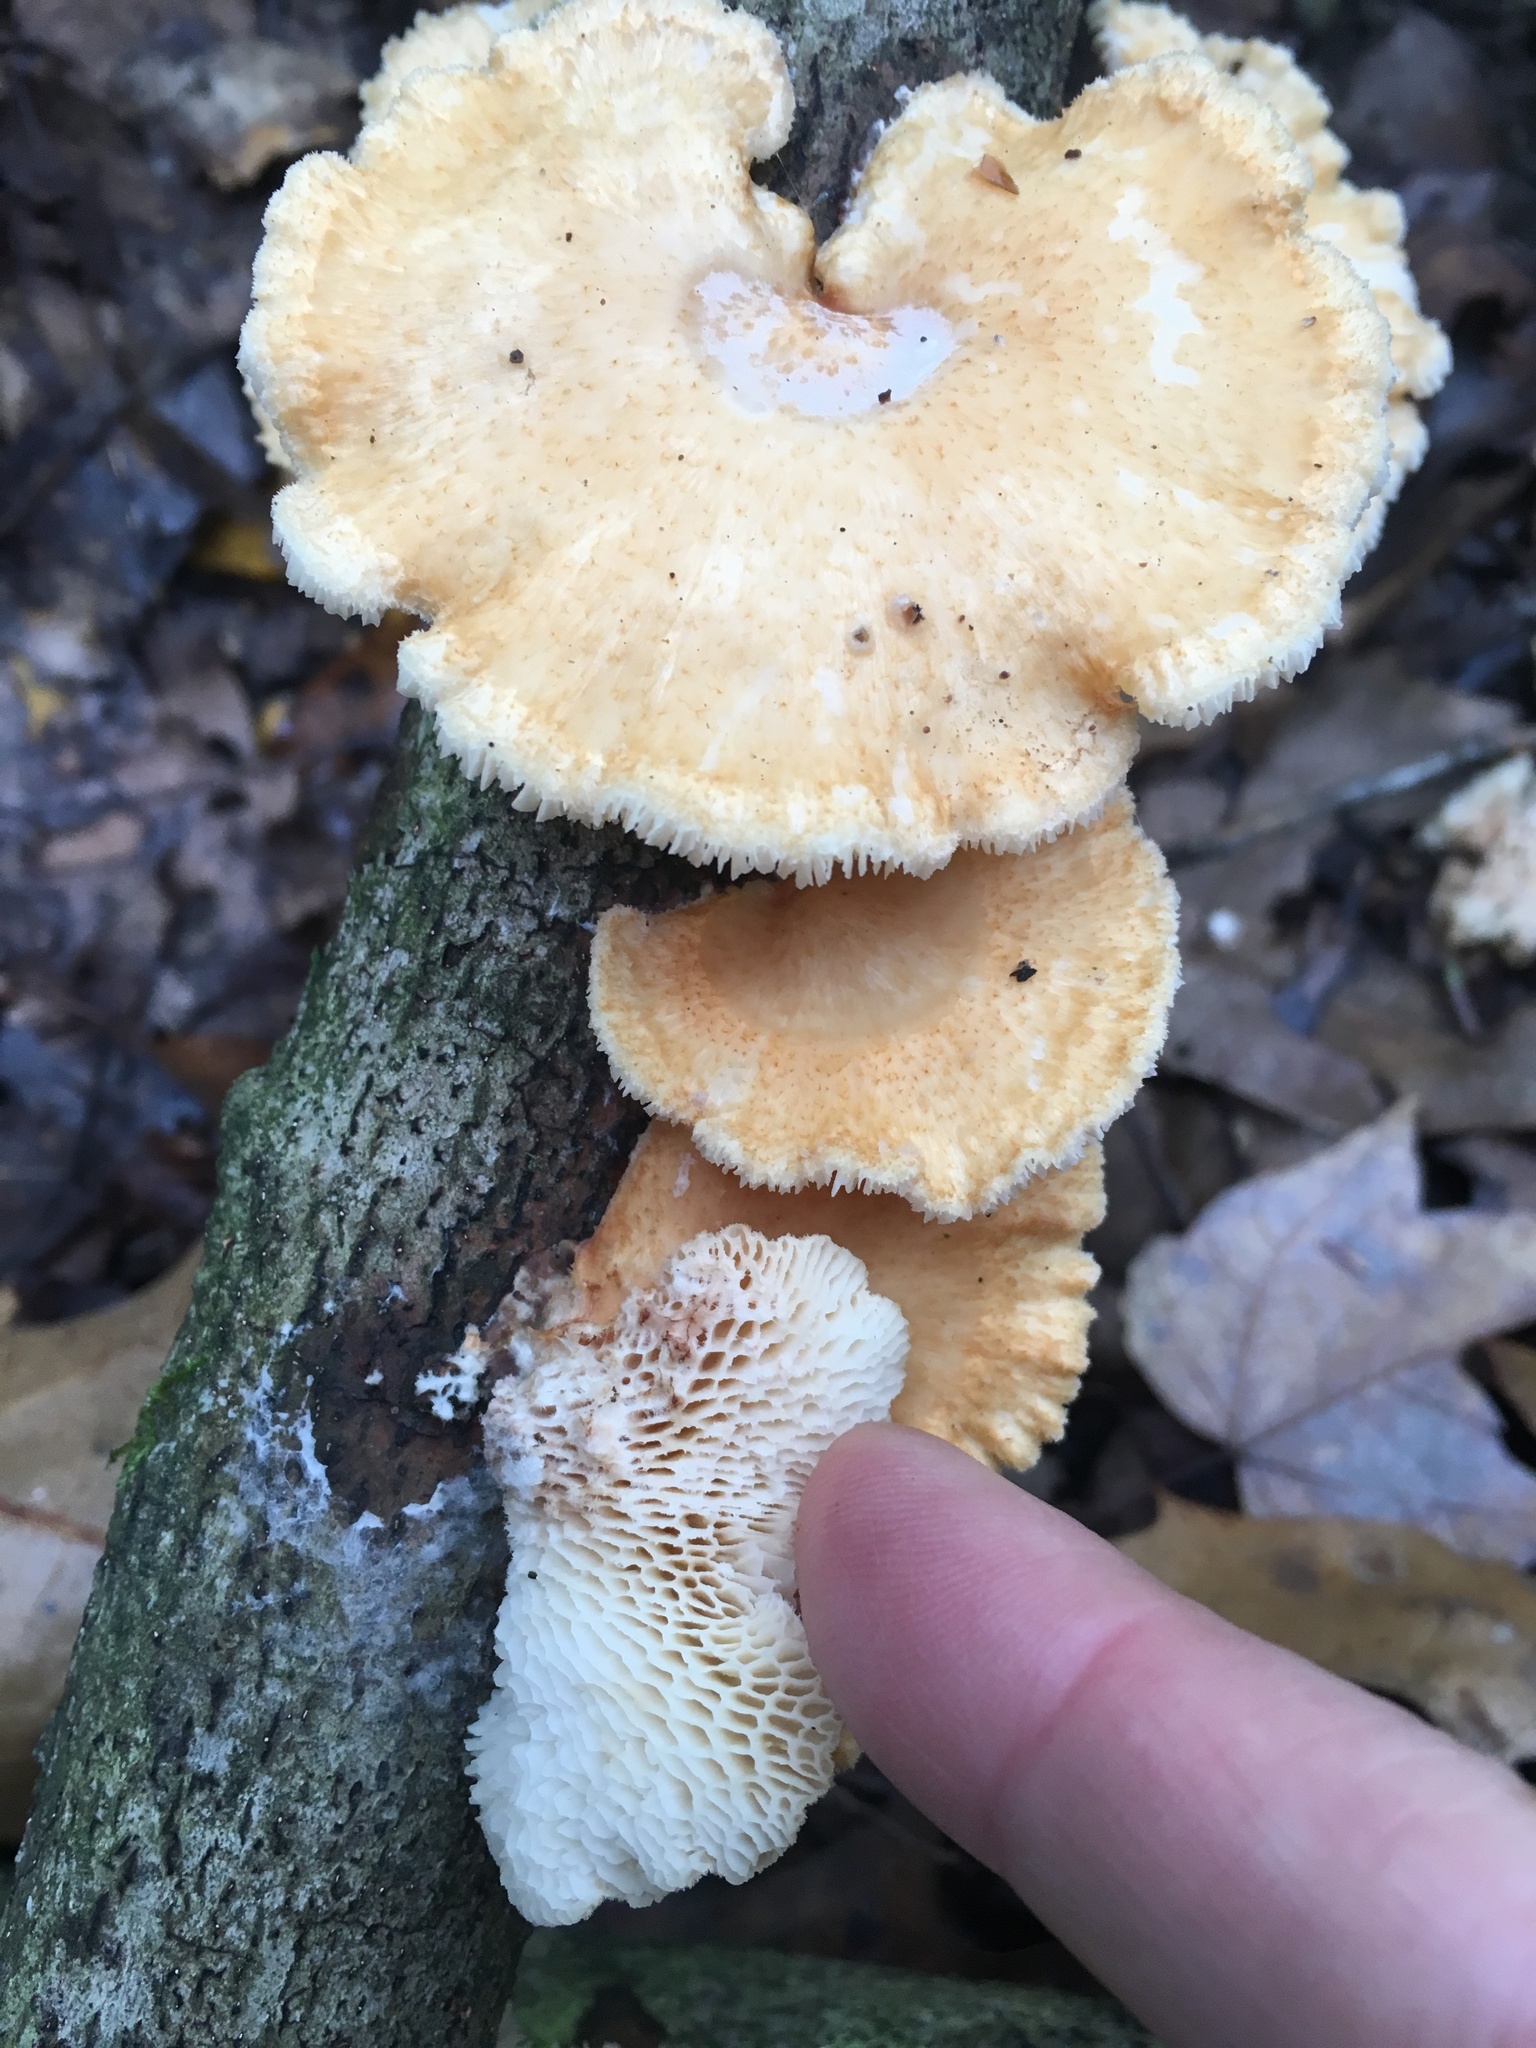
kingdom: Fungi
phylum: Basidiomycota
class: Agaricomycetes
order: Polyporales
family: Polyporaceae
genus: Neofavolus
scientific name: Neofavolus alveolaris
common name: Hexagonal-pored polypore
